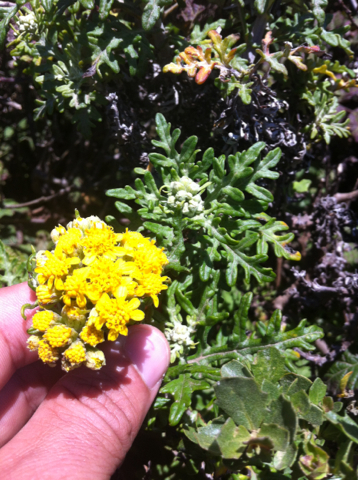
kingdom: Plantae
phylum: Tracheophyta
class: Magnoliopsida
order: Asterales
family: Asteraceae
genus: Eriophyllum
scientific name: Eriophyllum staechadifolium
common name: Lizardtail
